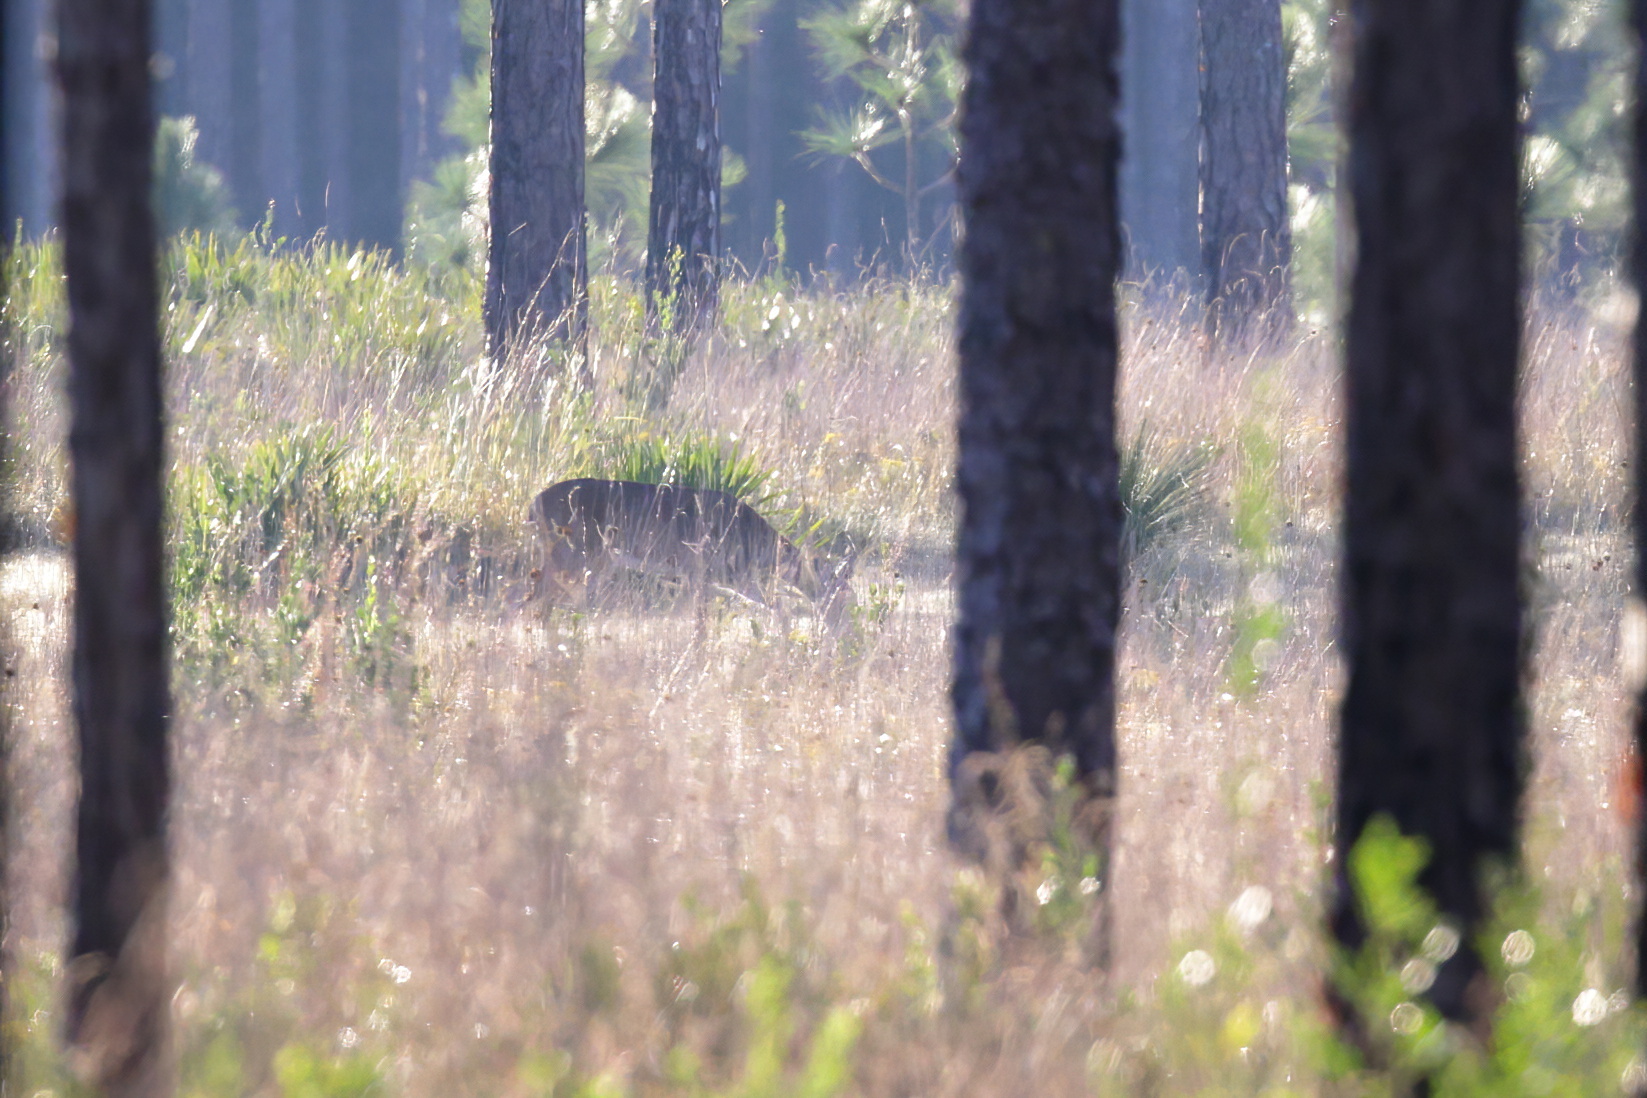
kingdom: Animalia
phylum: Chordata
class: Mammalia
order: Artiodactyla
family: Cervidae
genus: Odocoileus
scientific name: Odocoileus virginianus
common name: White-tailed deer
